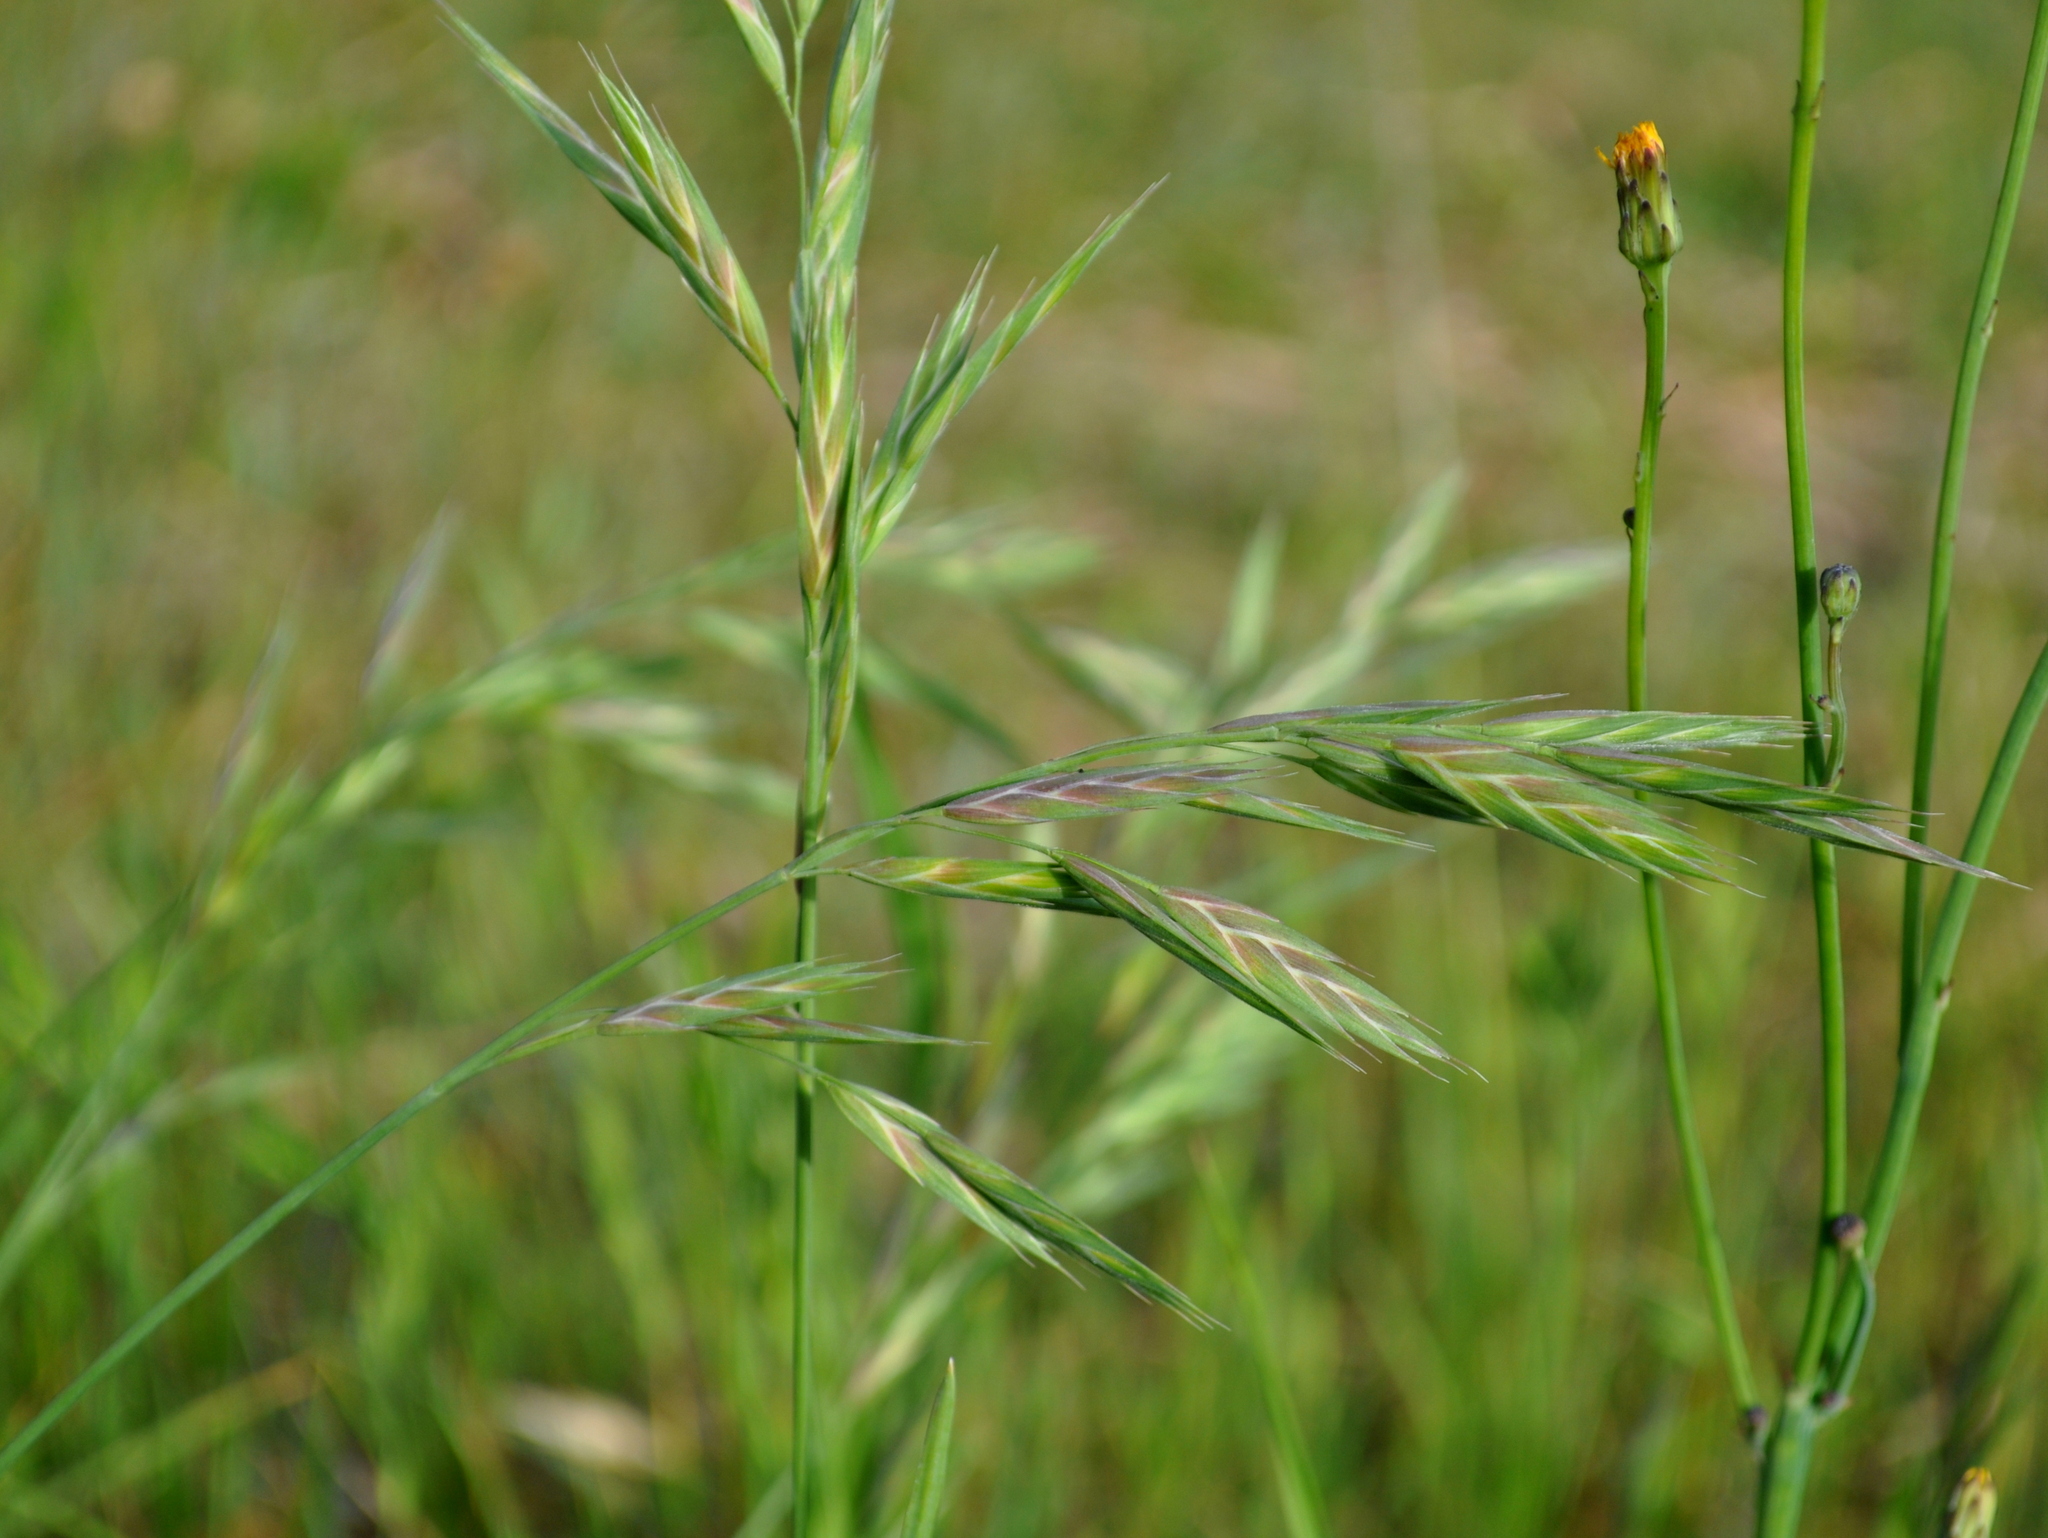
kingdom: Plantae
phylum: Tracheophyta
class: Liliopsida
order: Poales
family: Poaceae
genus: Bromus
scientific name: Bromus catharticus
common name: Rescuegrass
